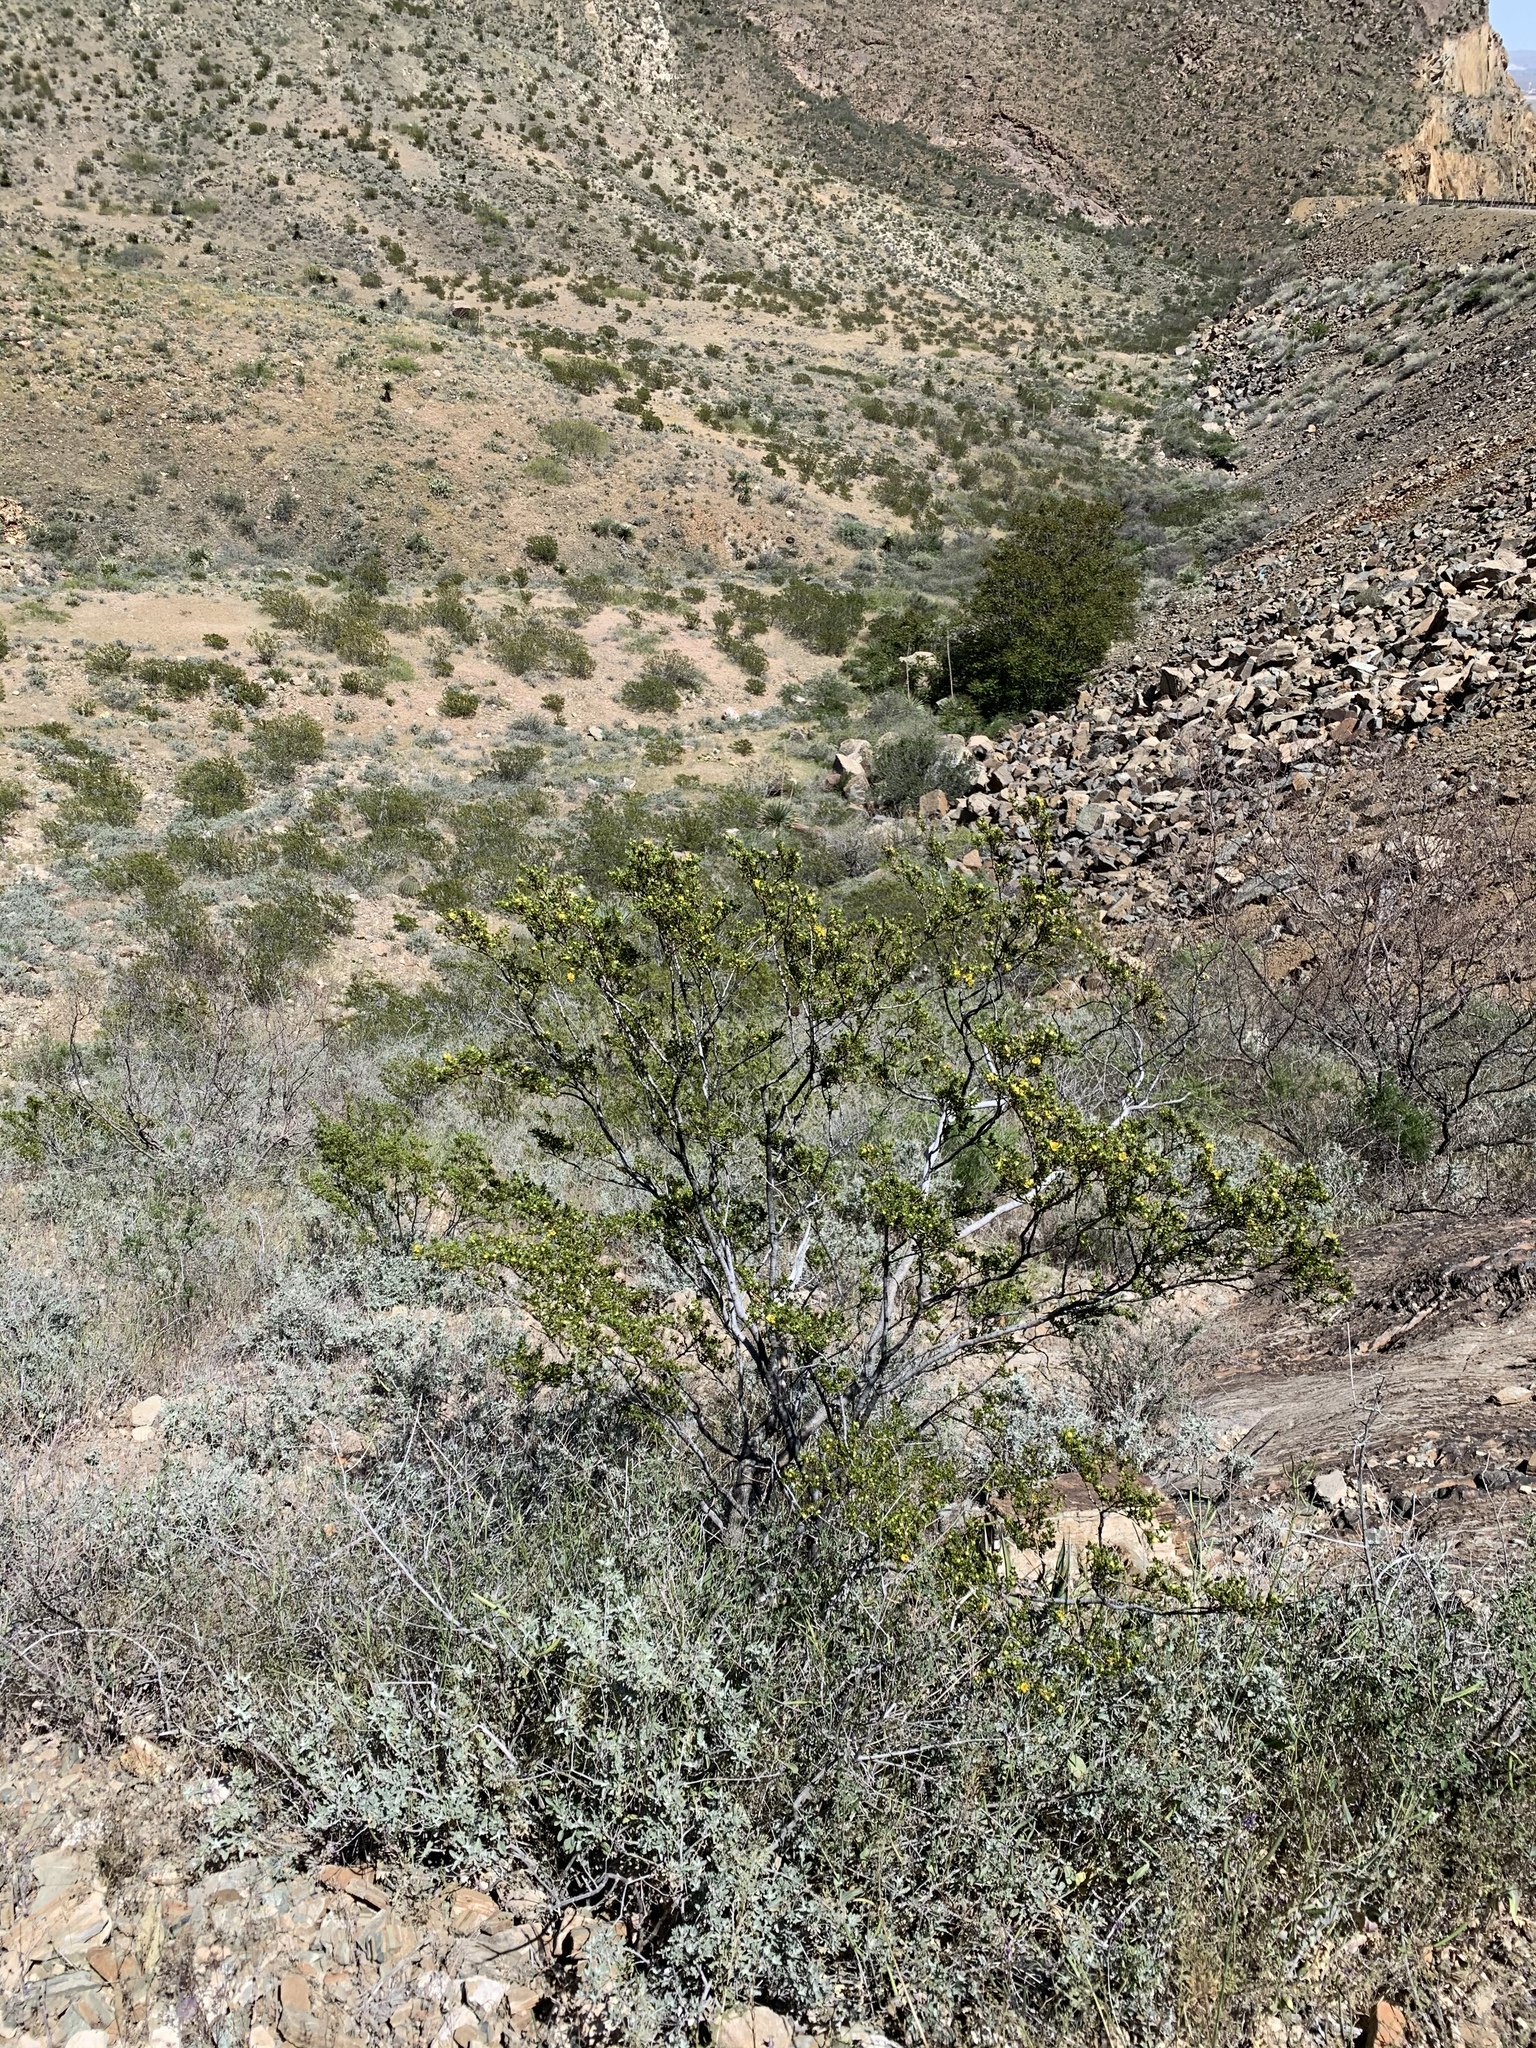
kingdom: Plantae
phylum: Tracheophyta
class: Magnoliopsida
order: Zygophyllales
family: Zygophyllaceae
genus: Larrea
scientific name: Larrea tridentata
